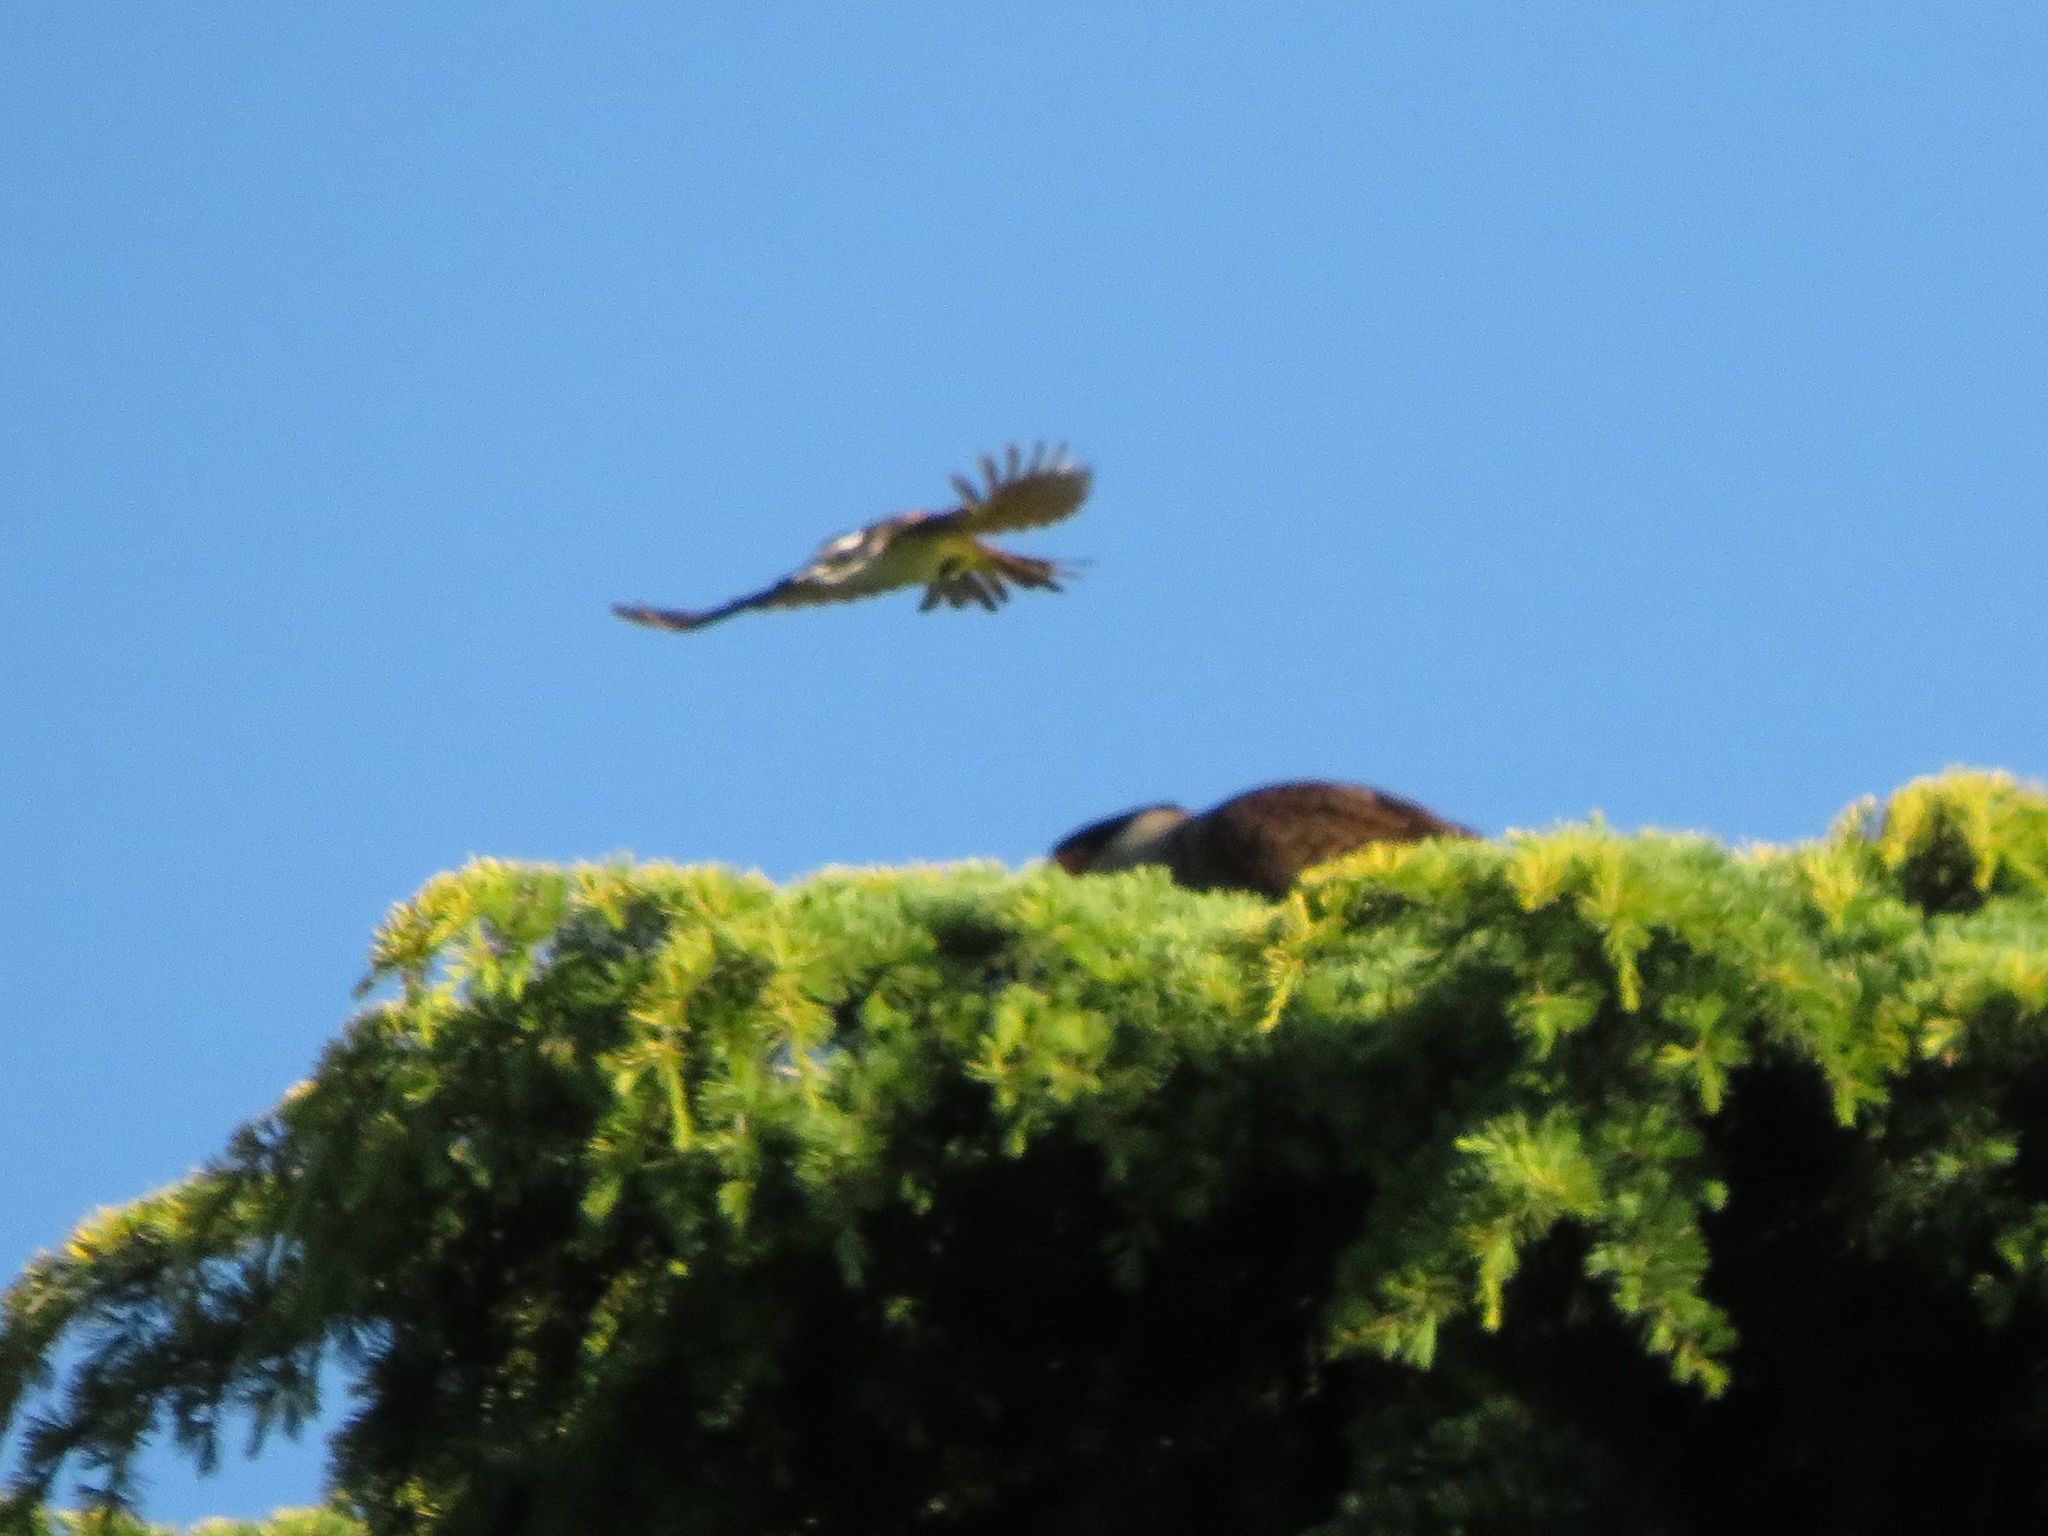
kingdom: Animalia
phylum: Chordata
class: Aves
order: Passeriformes
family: Tyrannidae
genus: Pitangus
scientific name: Pitangus sulphuratus
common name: Great kiskadee
